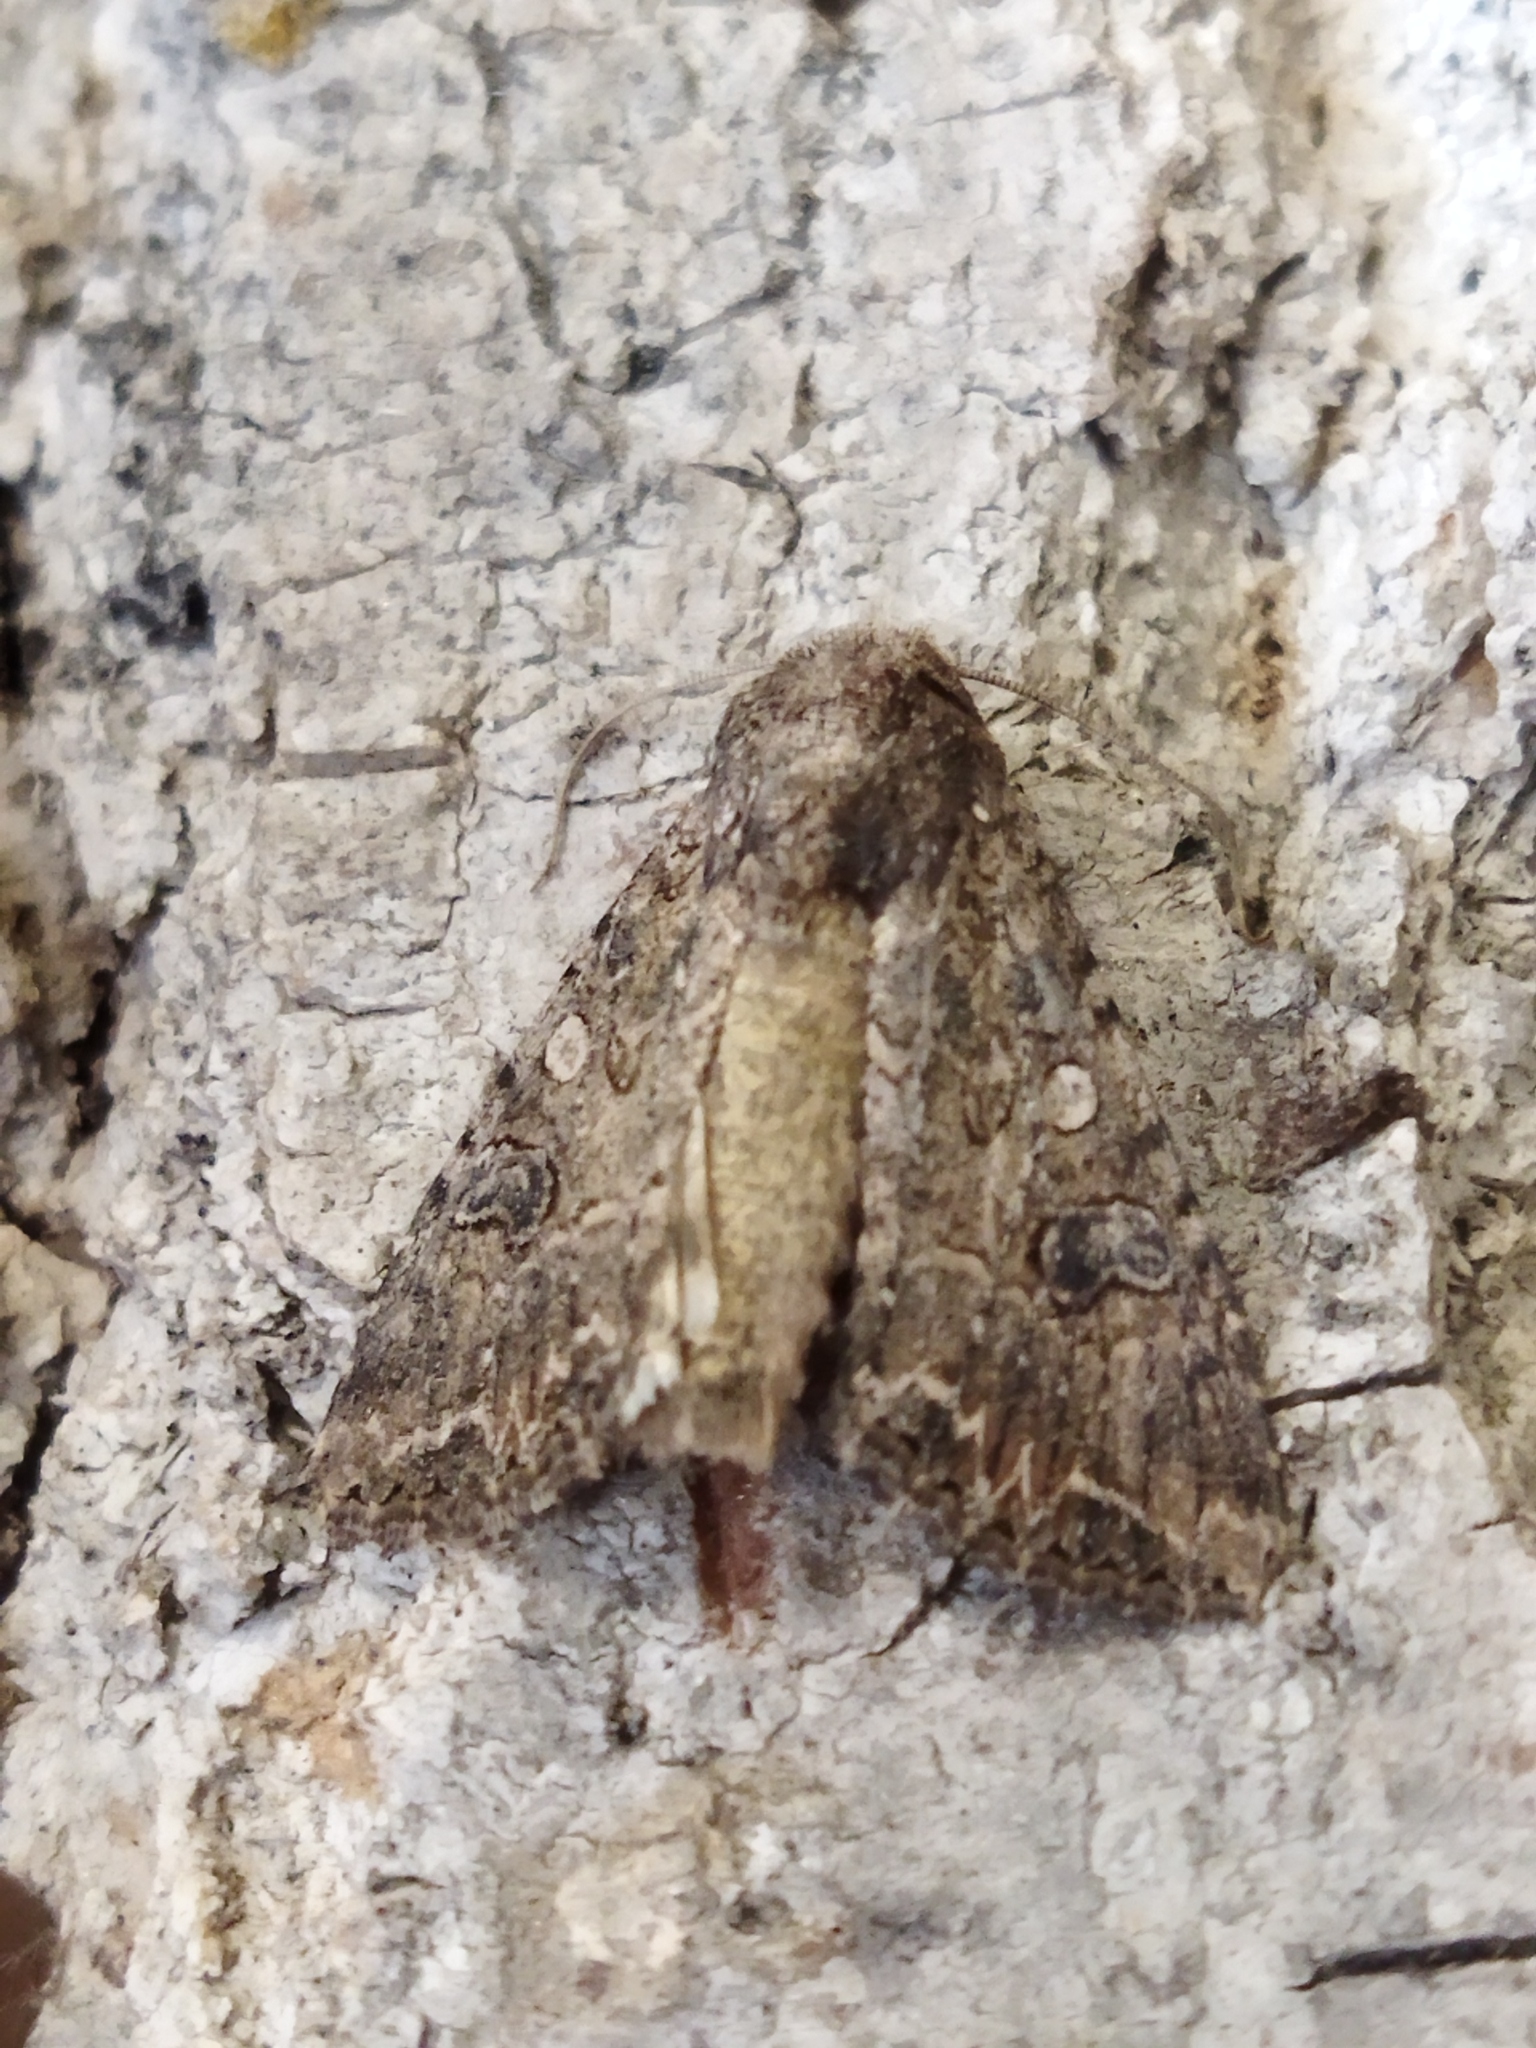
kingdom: Animalia
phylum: Arthropoda
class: Insecta
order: Lepidoptera
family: Noctuidae
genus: Anarta
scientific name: Anarta trifolii
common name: Clover cutworm moth
